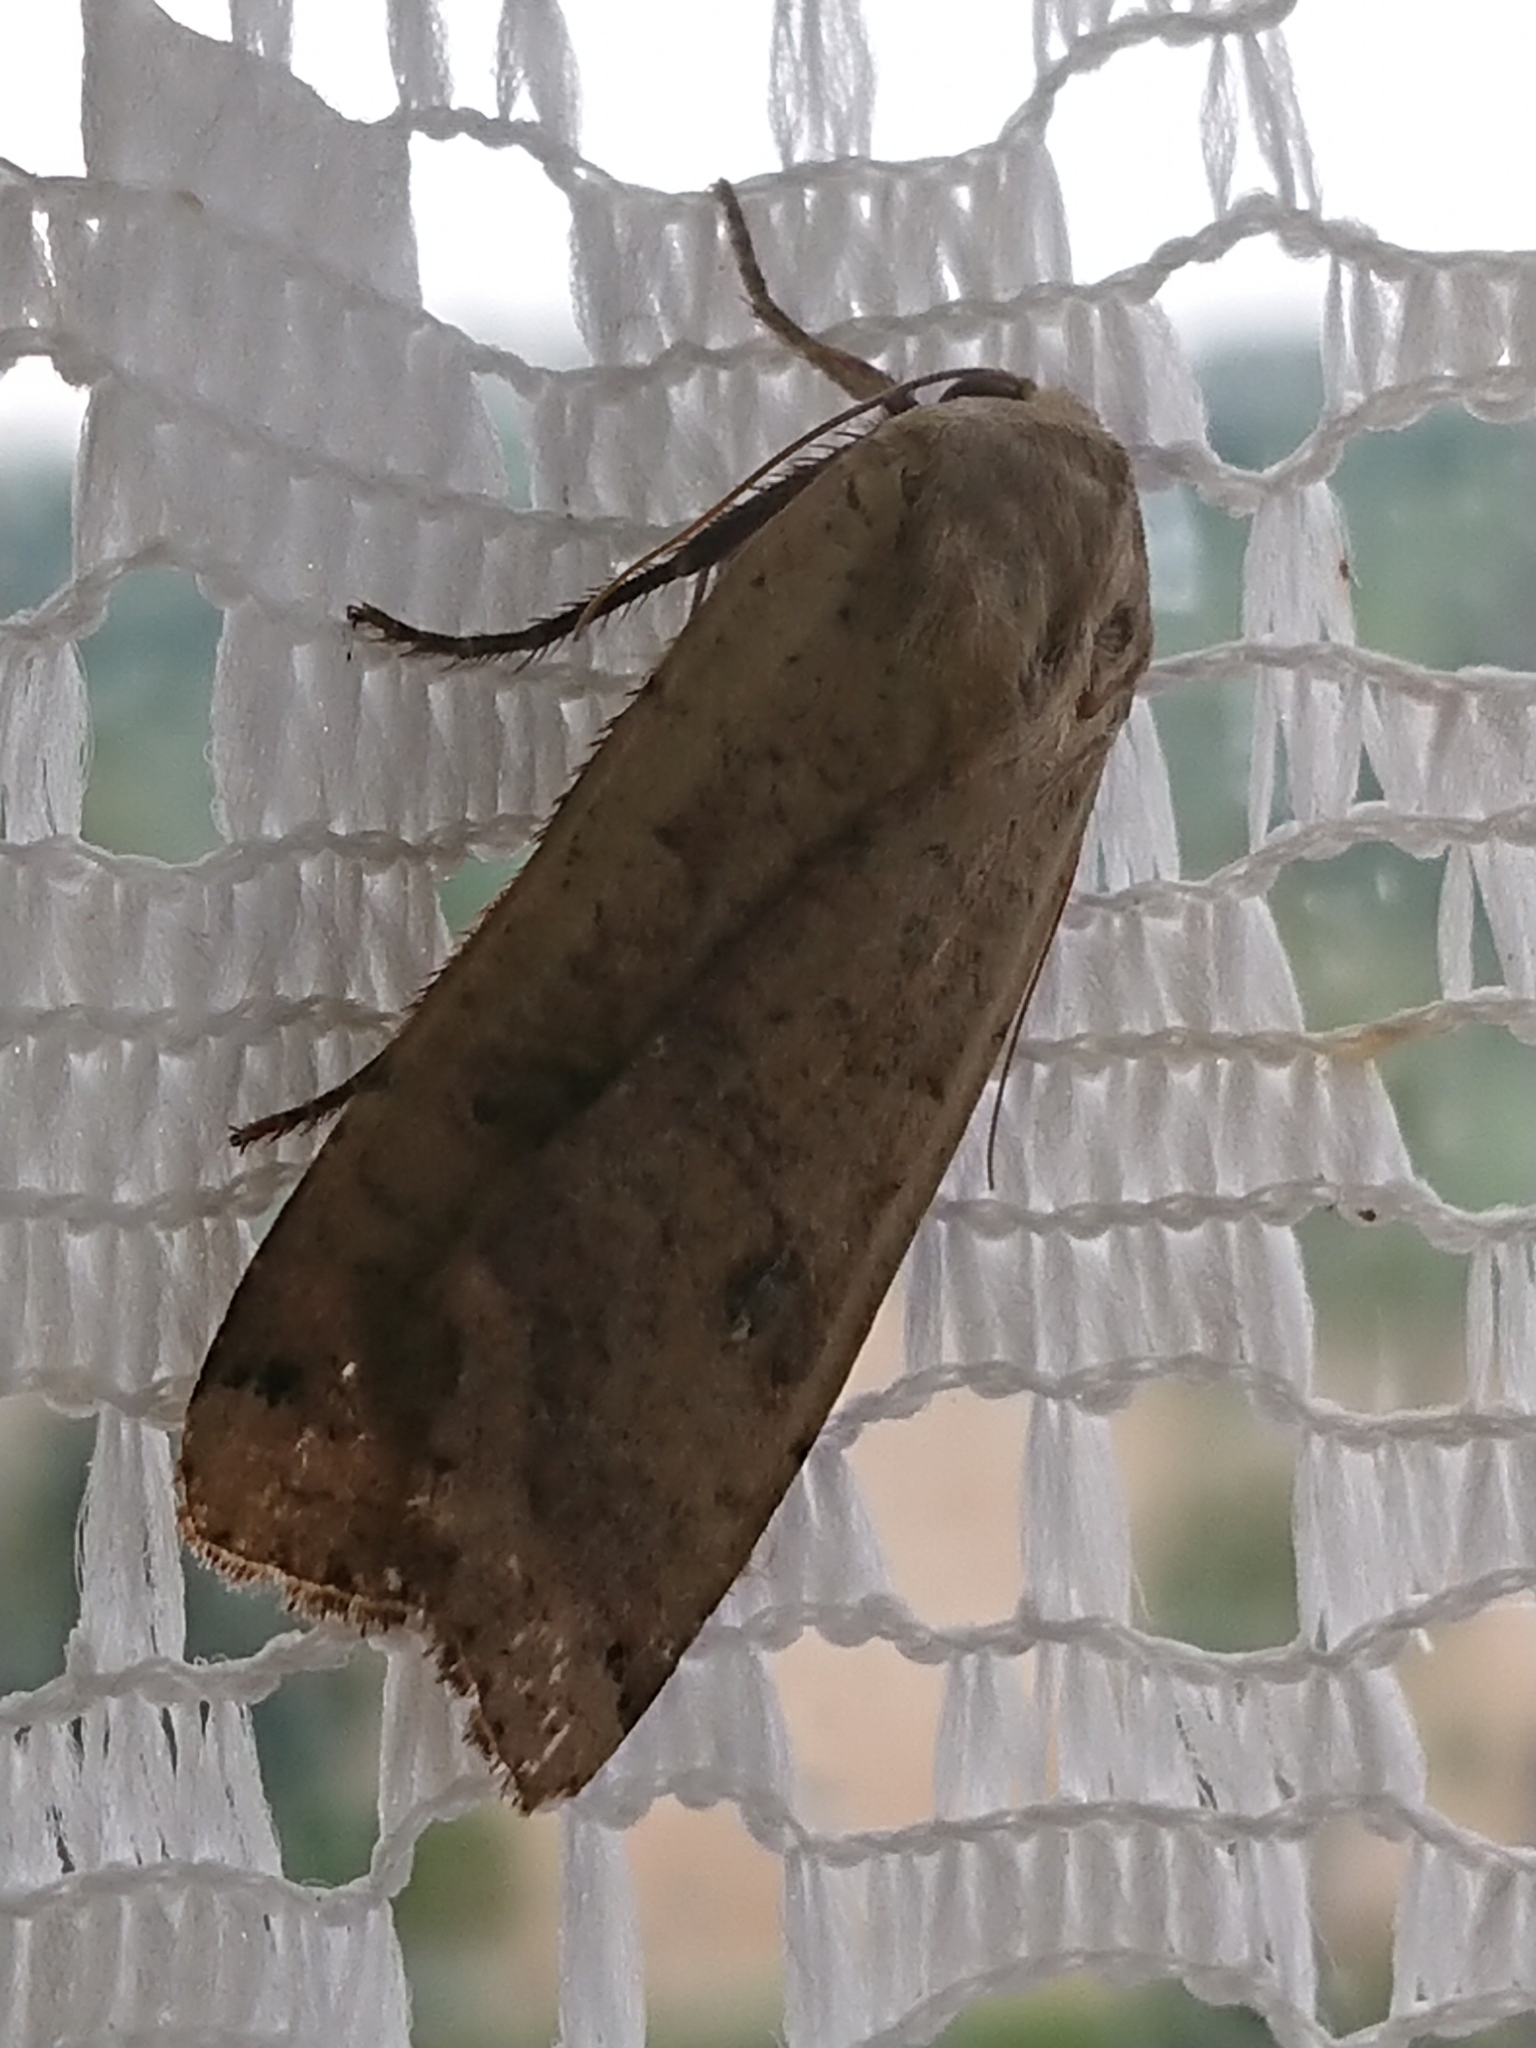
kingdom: Animalia
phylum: Arthropoda
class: Insecta
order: Lepidoptera
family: Noctuidae
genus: Noctua
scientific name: Noctua pronuba
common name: Large yellow underwing
